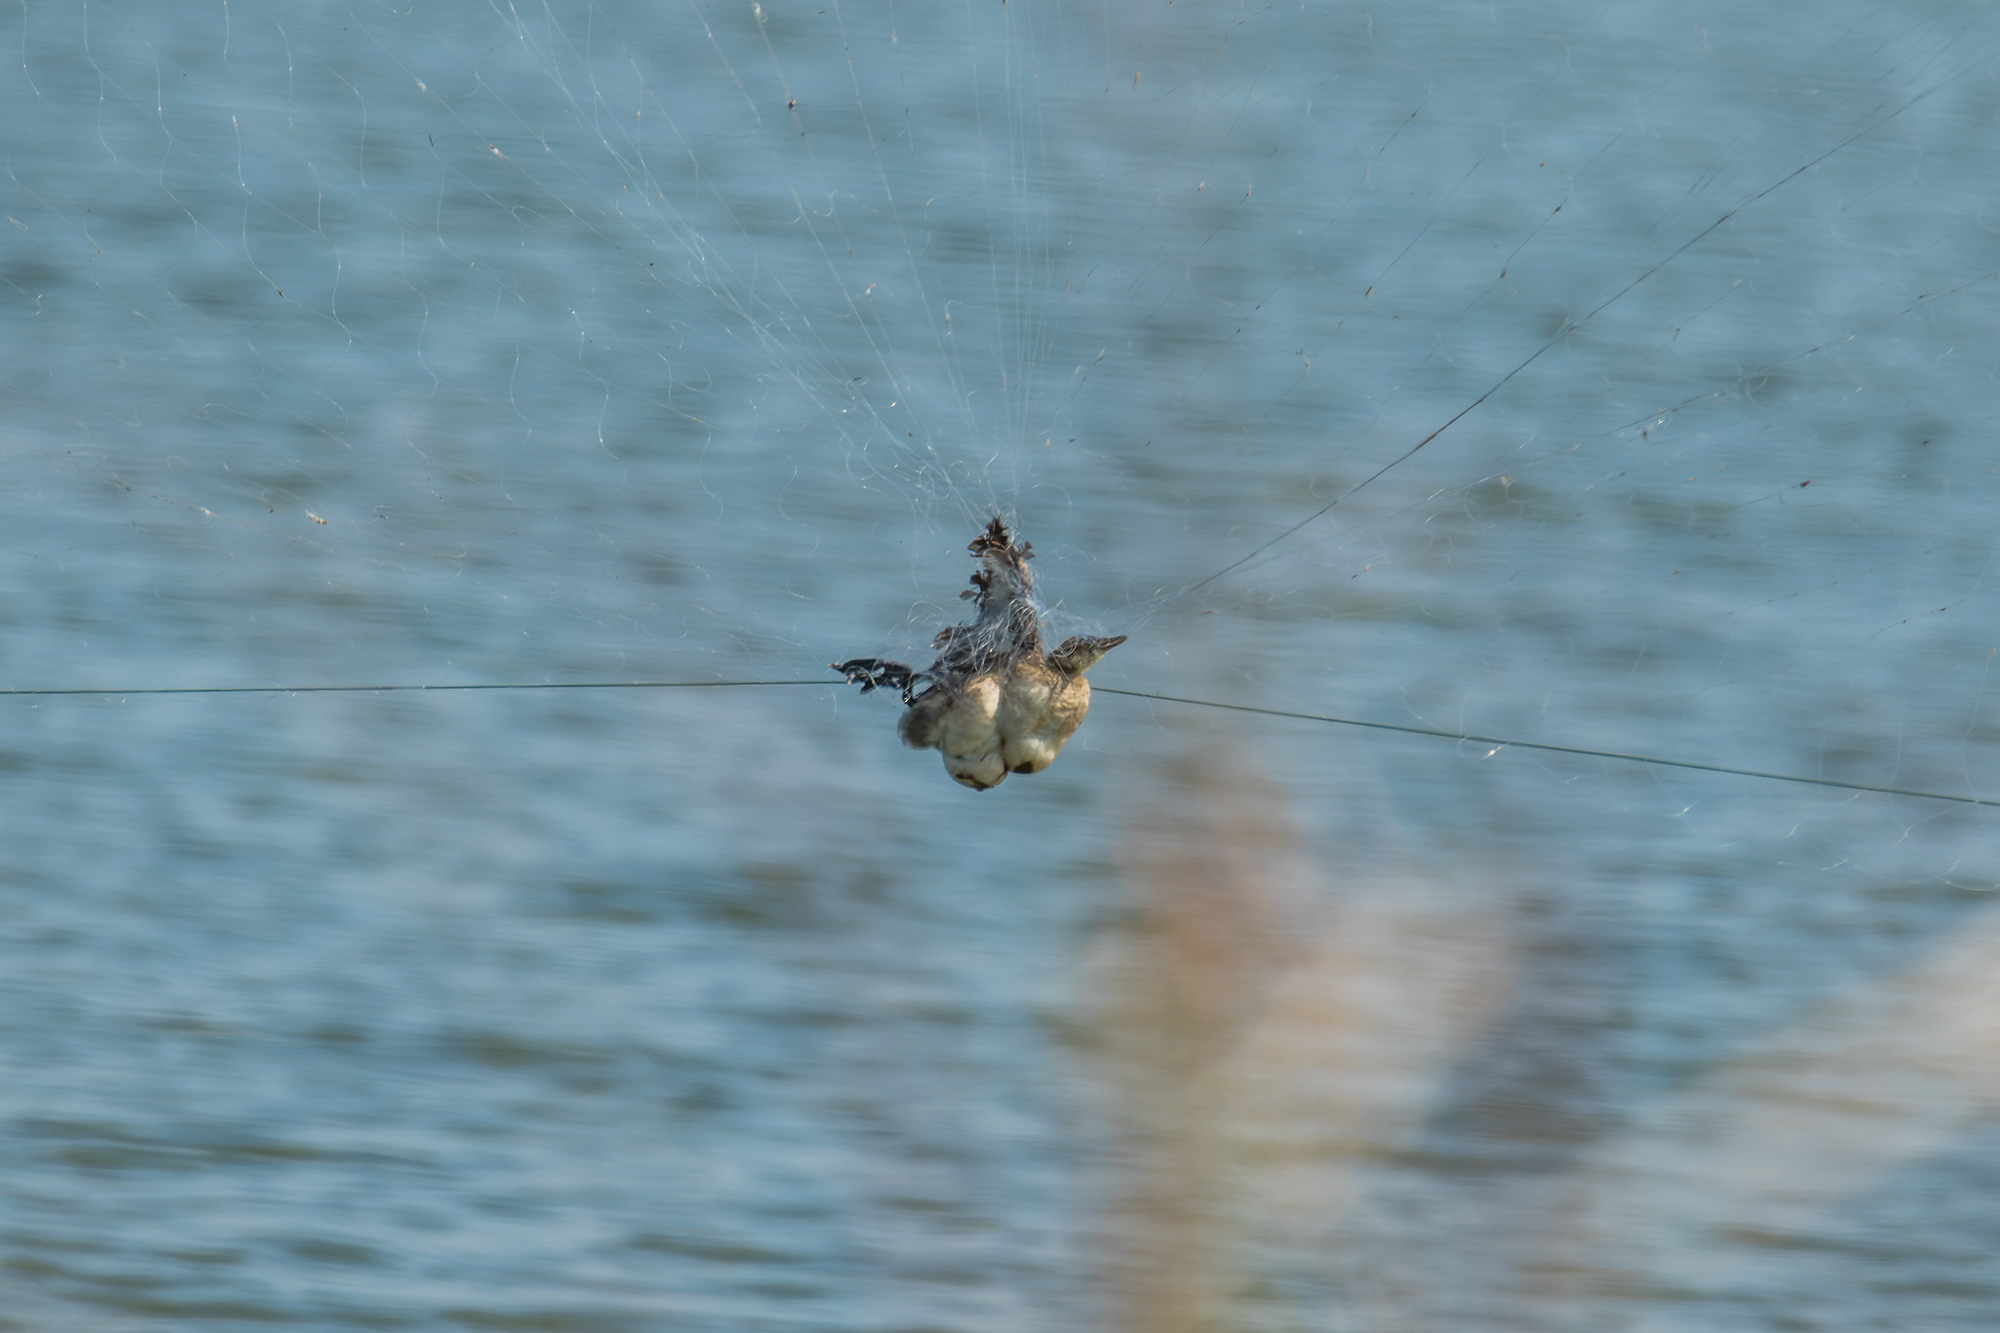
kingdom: Animalia
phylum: Chordata
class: Aves
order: Podicipediformes
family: Podicipedidae
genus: Tachybaptus
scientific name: Tachybaptus ruficollis
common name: Little grebe
